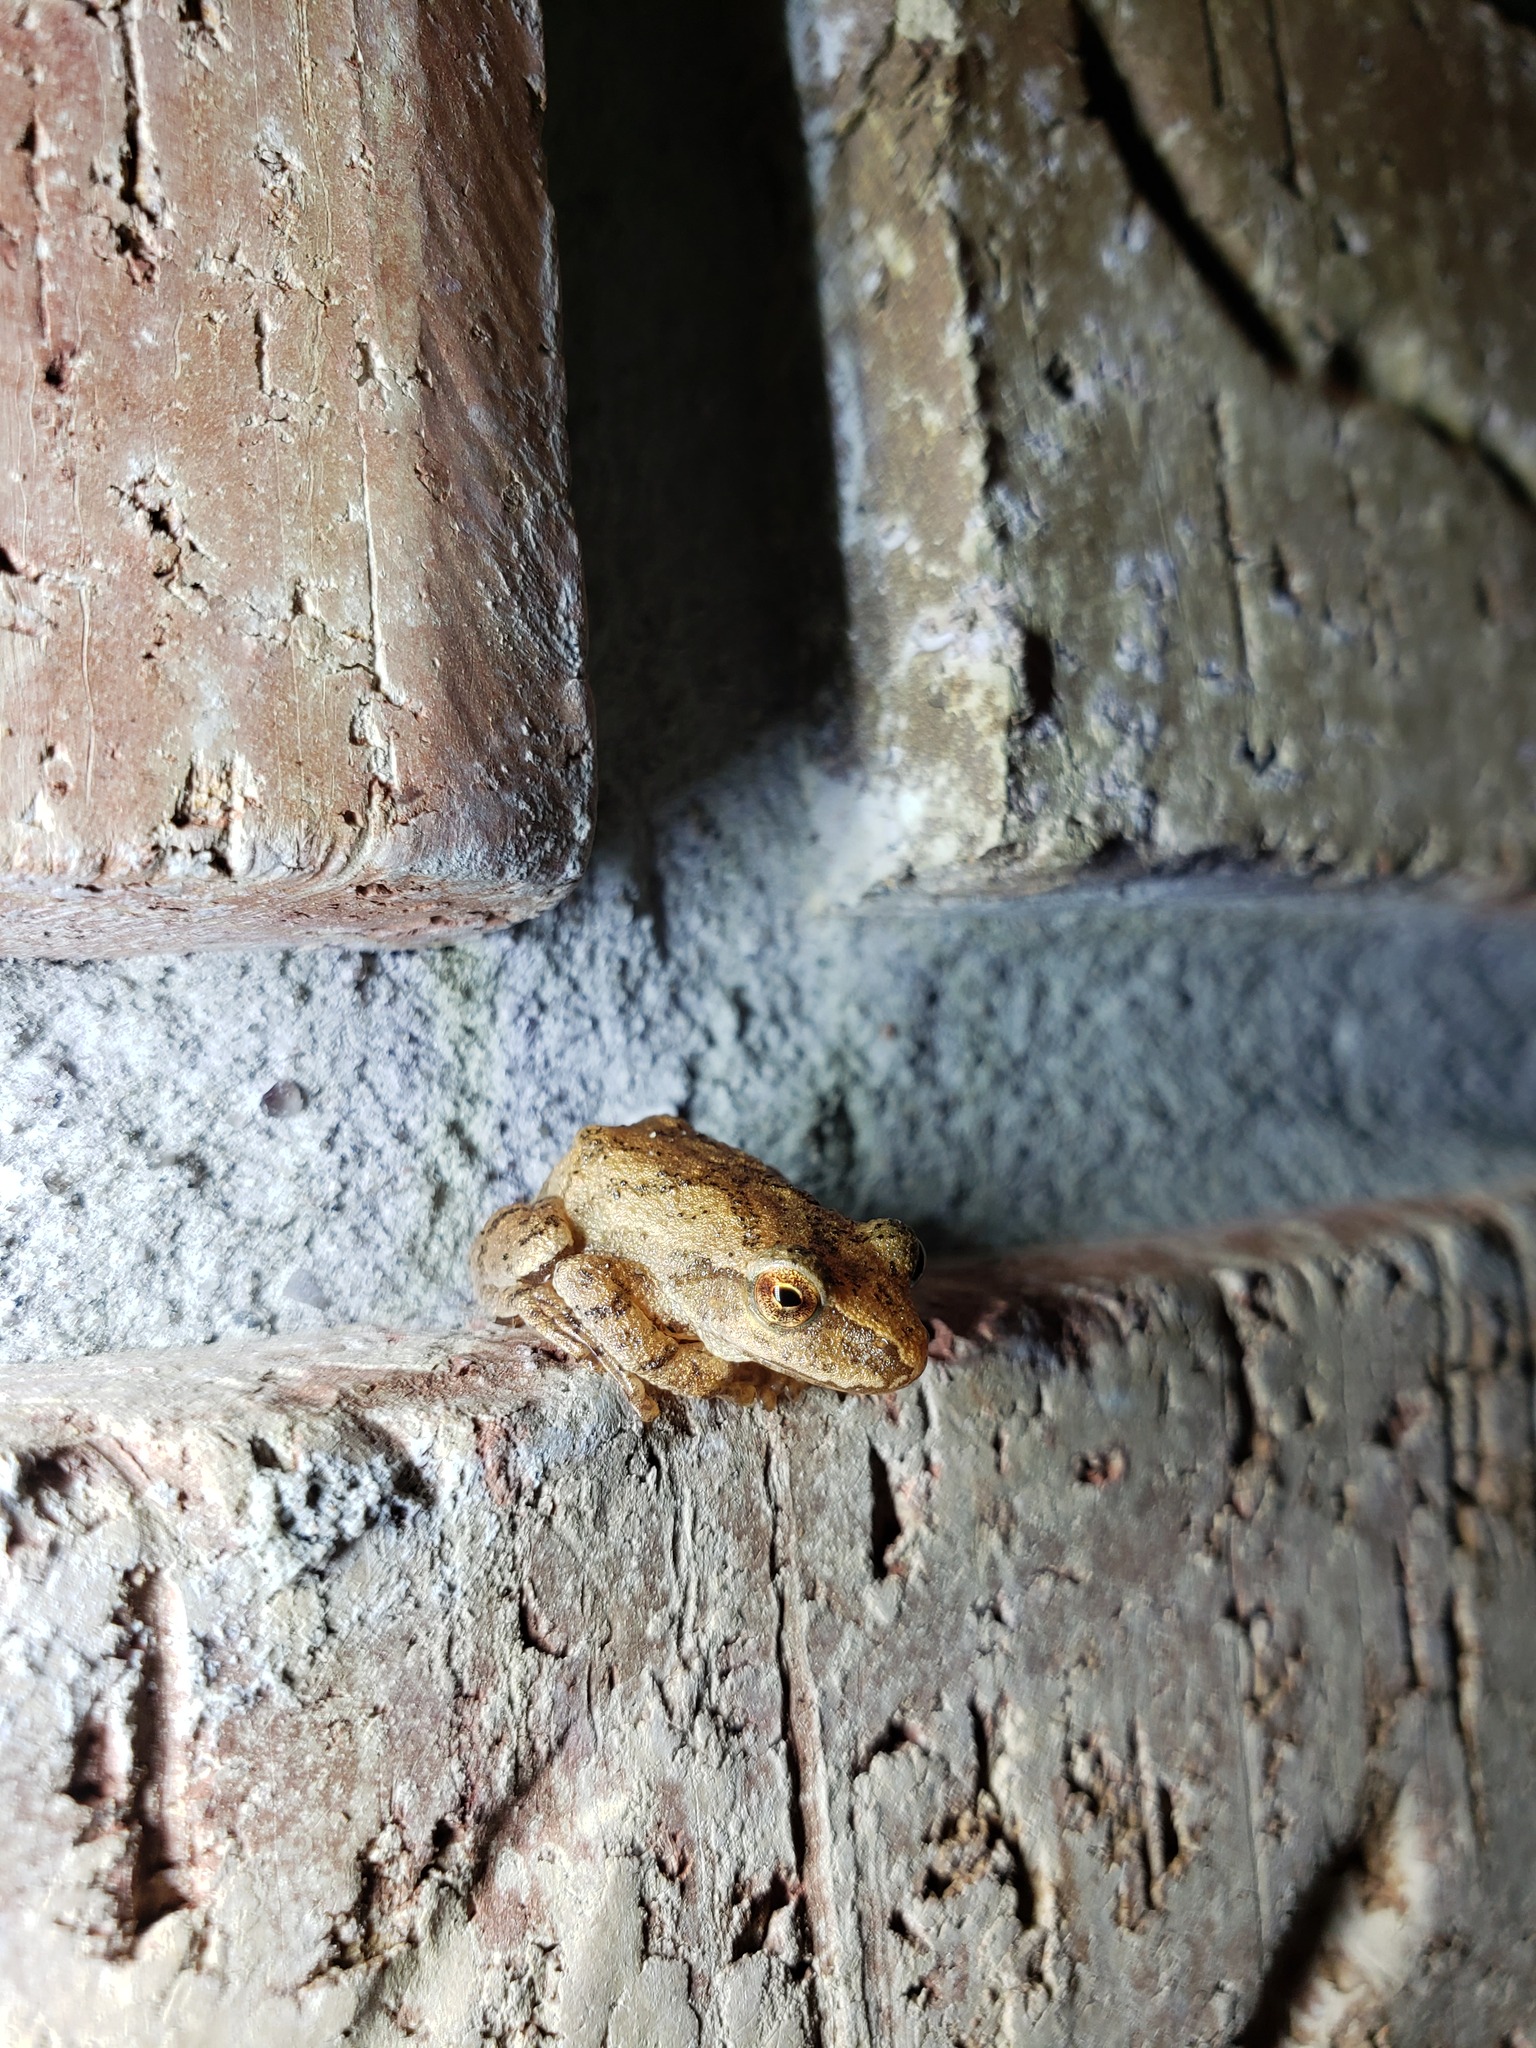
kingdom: Animalia
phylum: Chordata
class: Amphibia
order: Anura
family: Hylidae
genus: Pseudacris
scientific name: Pseudacris crucifer
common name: Spring peeper
